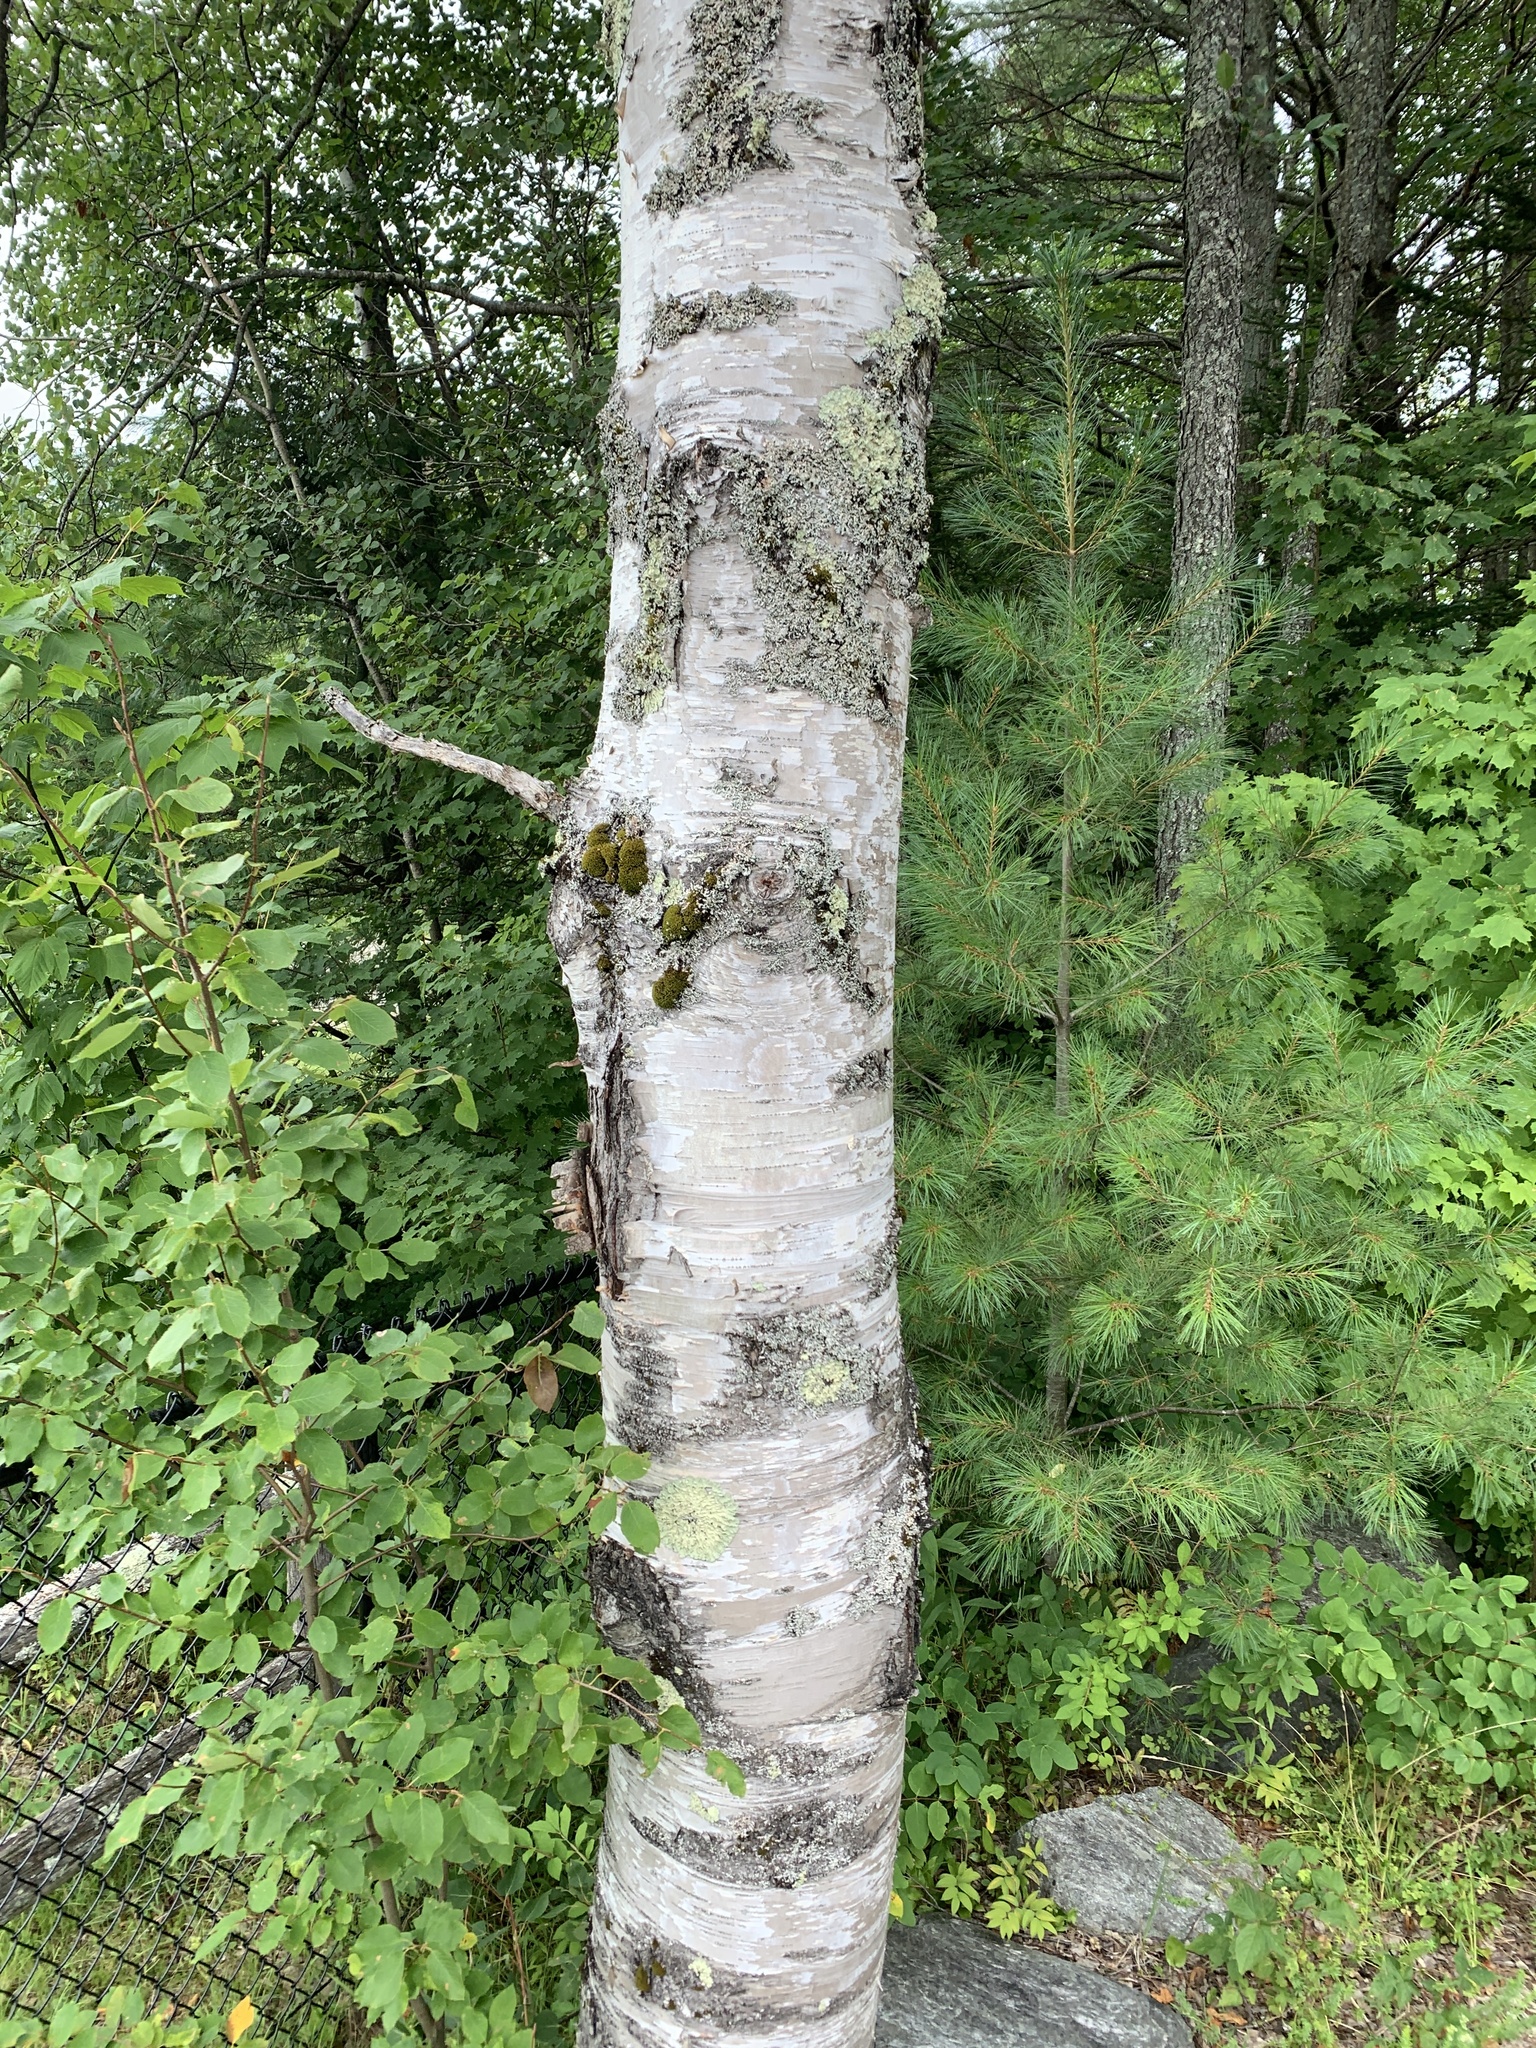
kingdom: Plantae
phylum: Tracheophyta
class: Magnoliopsida
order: Fagales
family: Betulaceae
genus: Betula
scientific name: Betula papyrifera
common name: Paper birch
